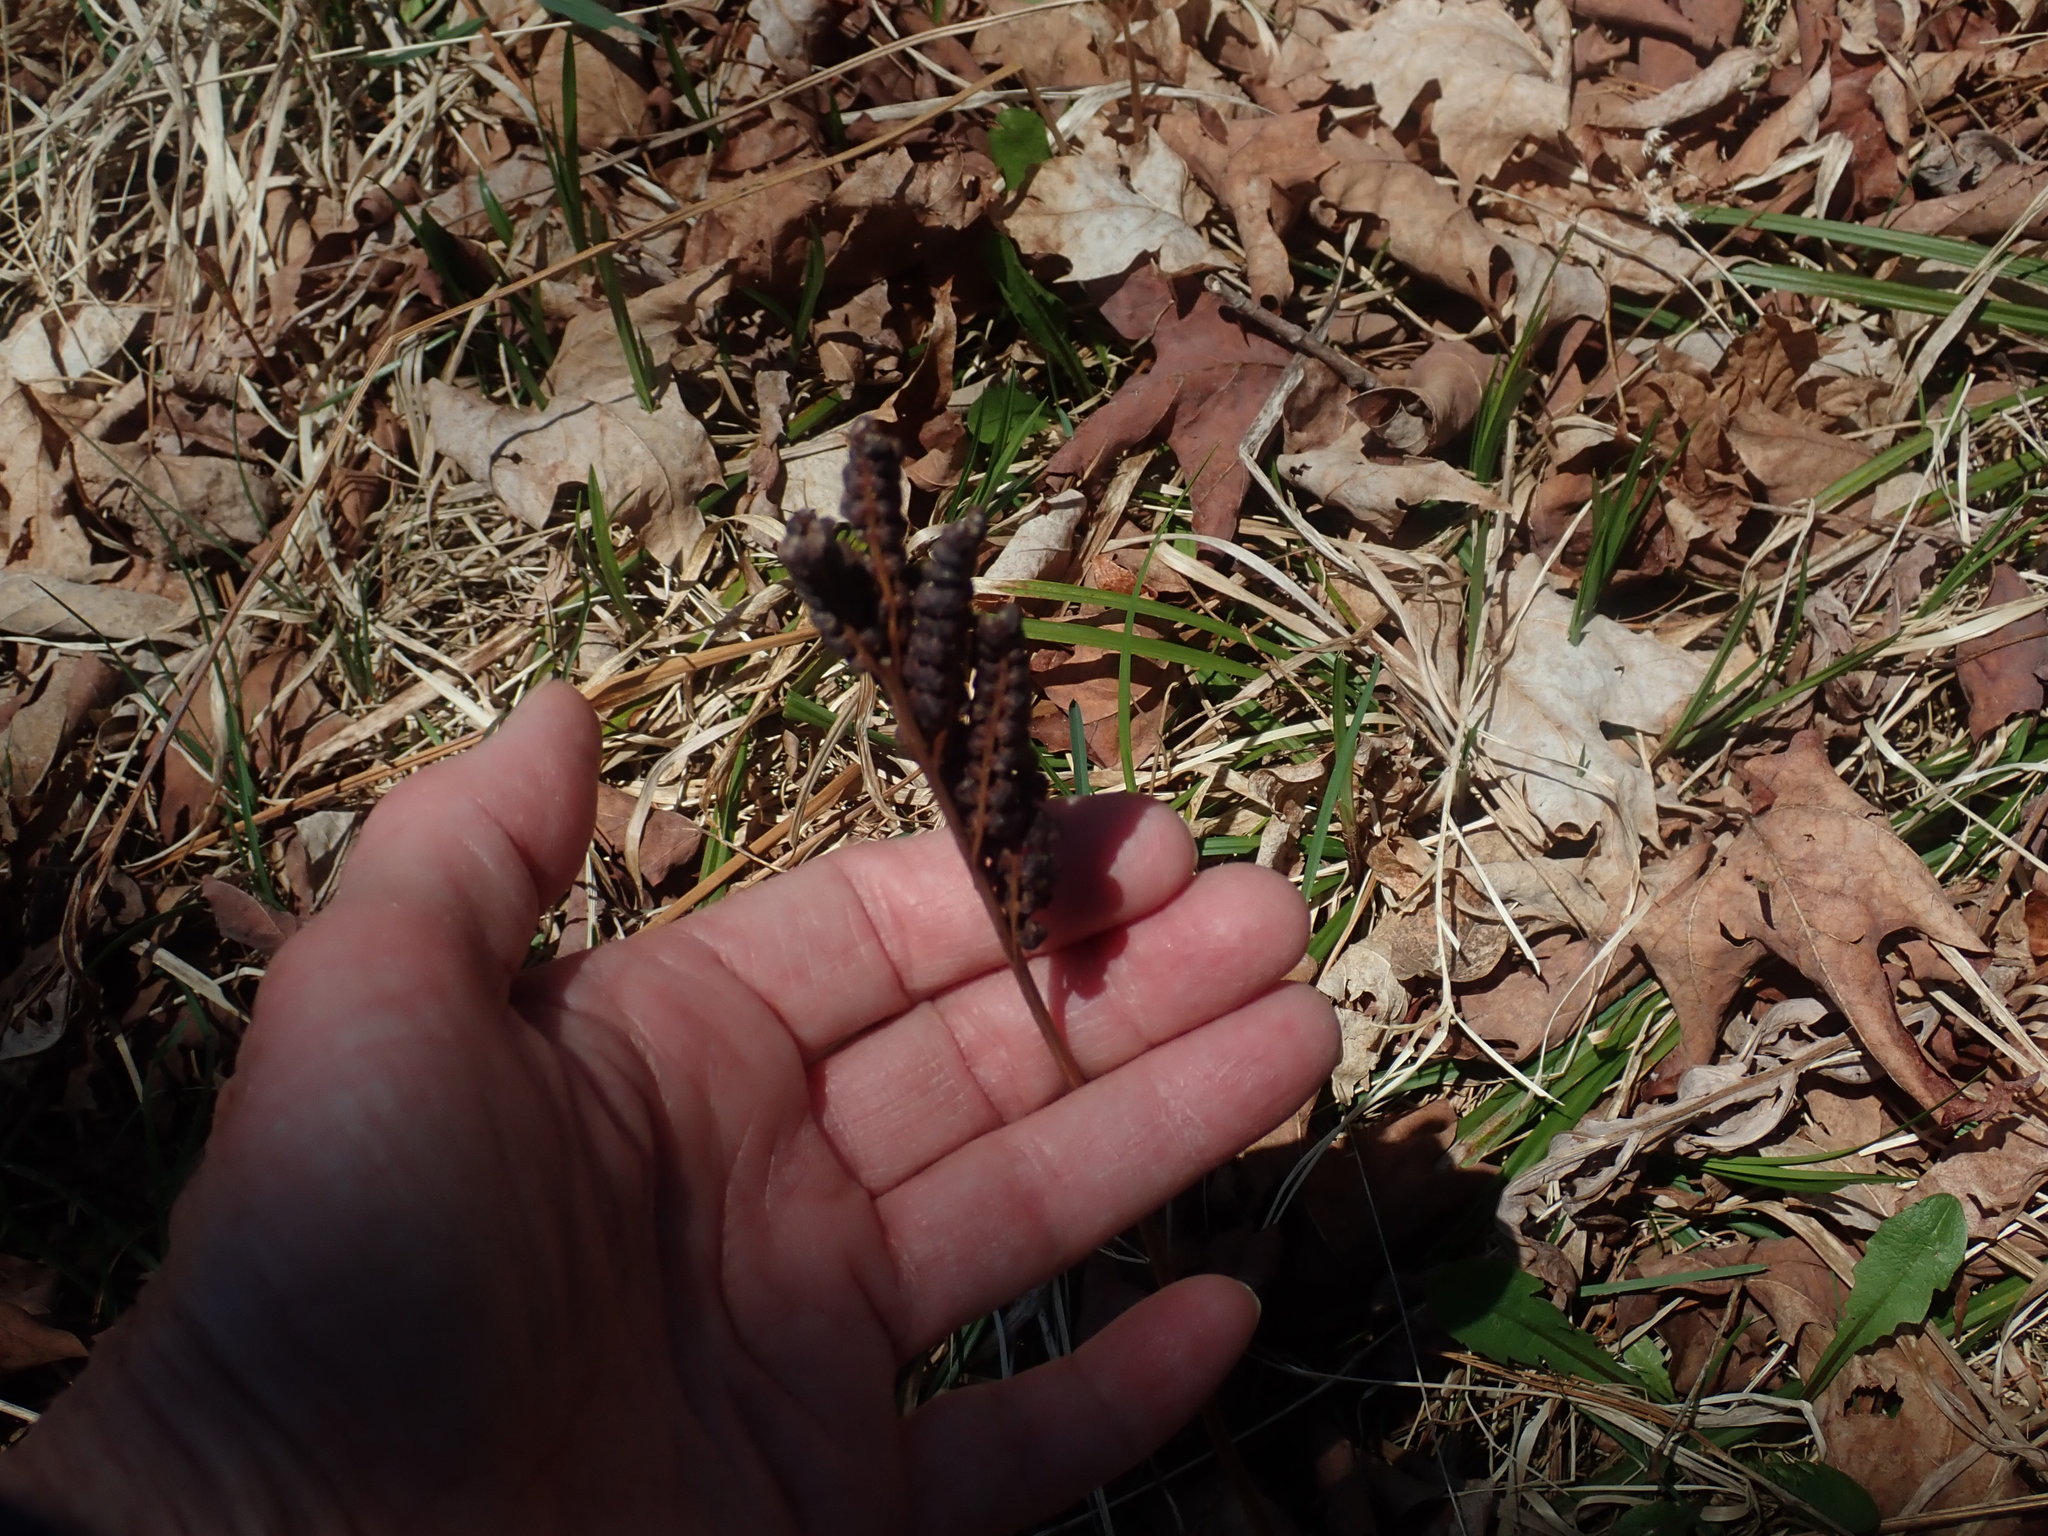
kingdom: Plantae
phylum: Tracheophyta
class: Polypodiopsida
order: Polypodiales
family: Onocleaceae
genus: Onoclea
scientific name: Onoclea sensibilis
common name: Sensitive fern
